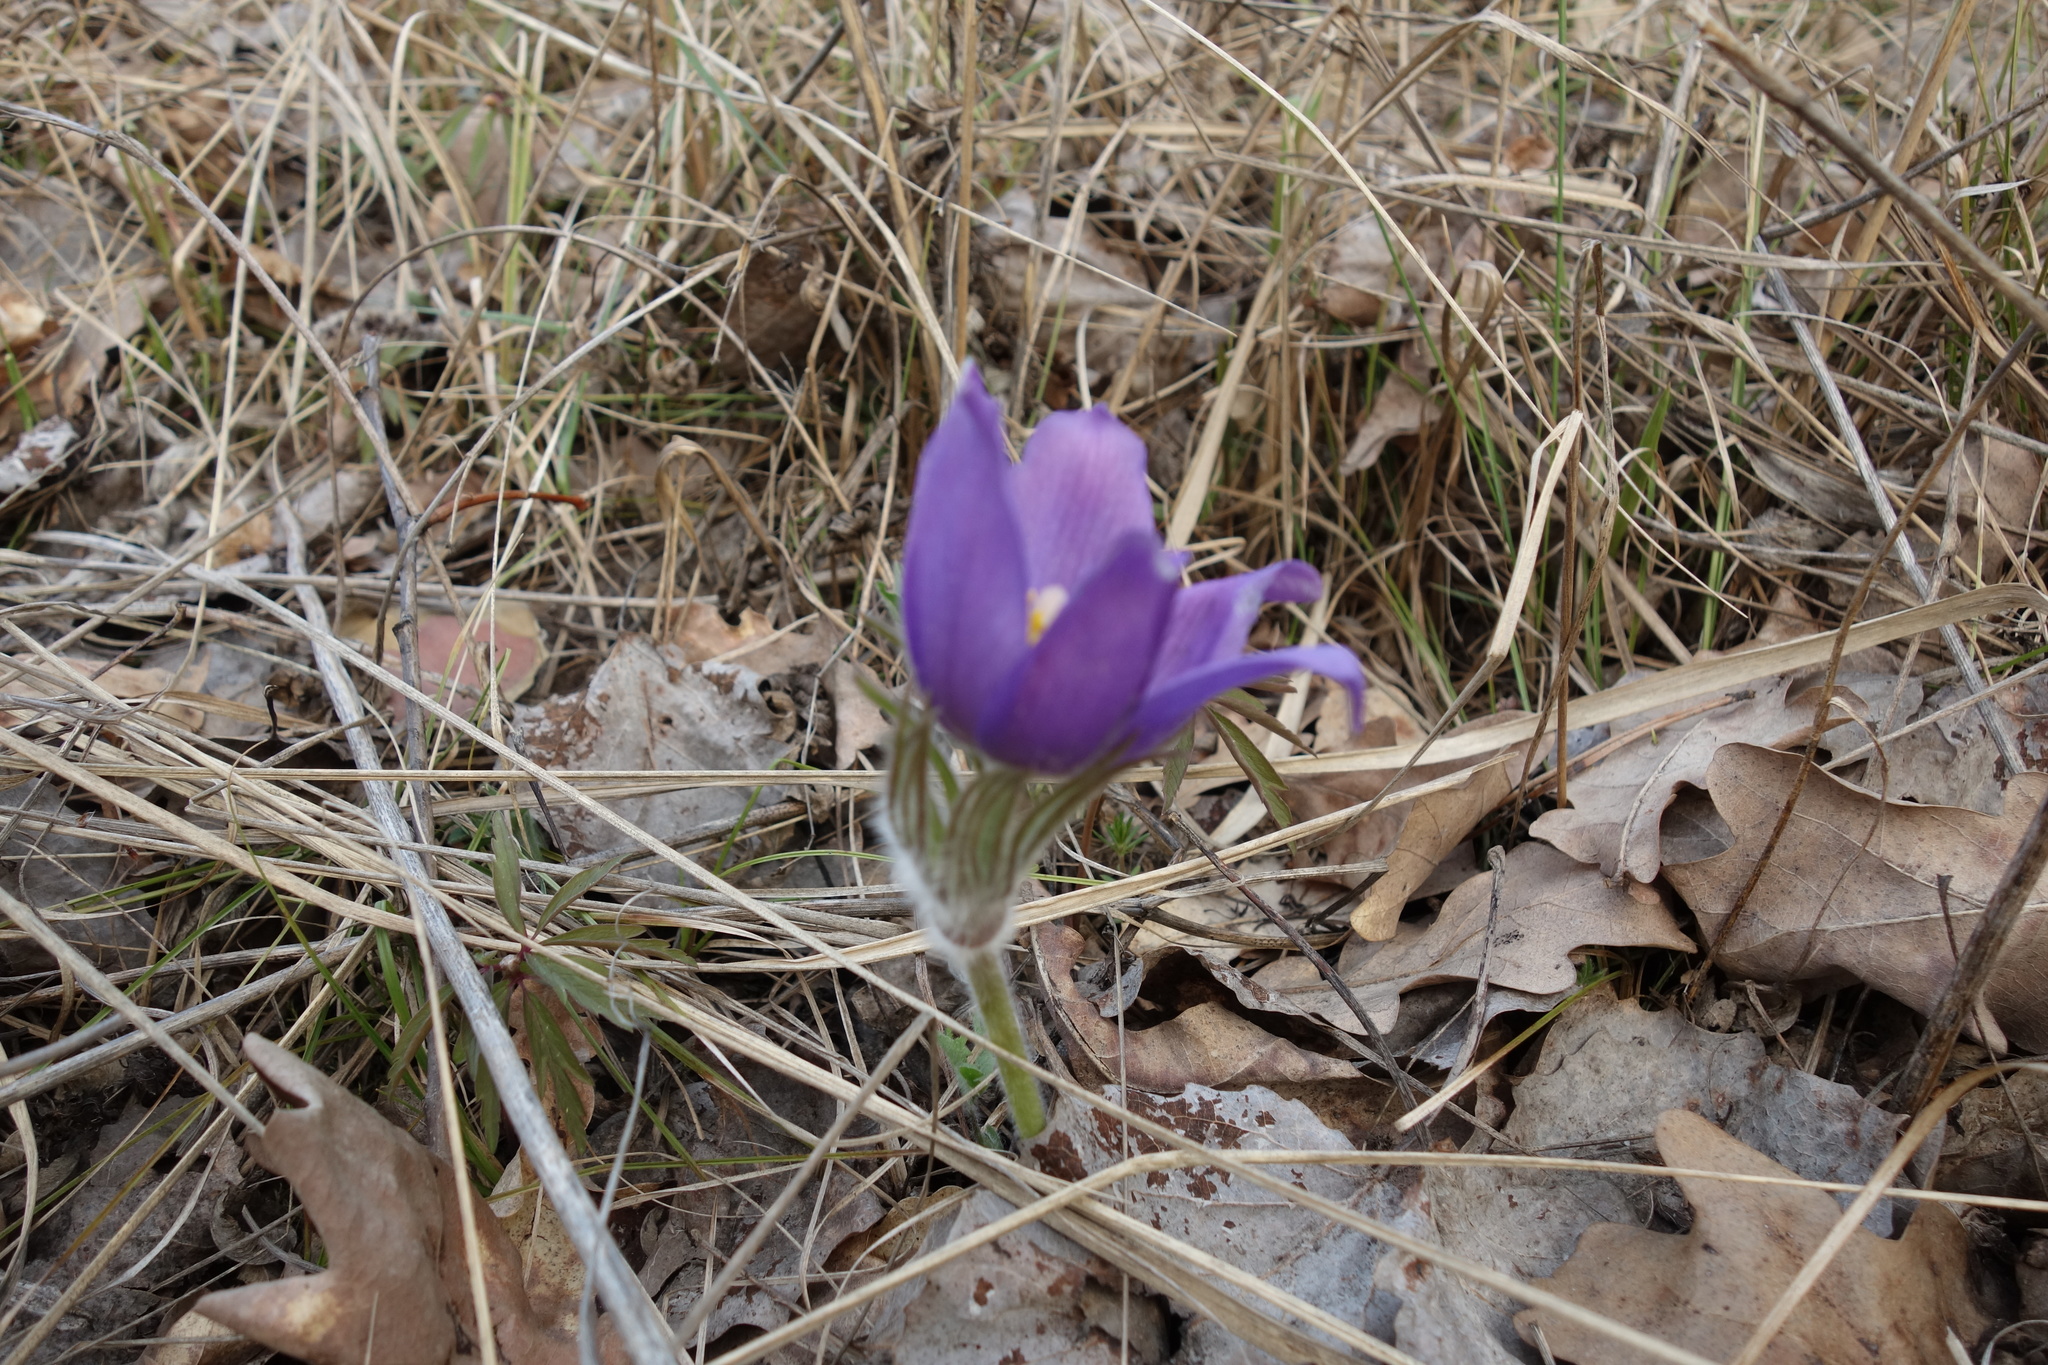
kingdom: Plantae
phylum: Tracheophyta
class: Magnoliopsida
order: Ranunculales
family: Ranunculaceae
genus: Pulsatilla
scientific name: Pulsatilla patens
